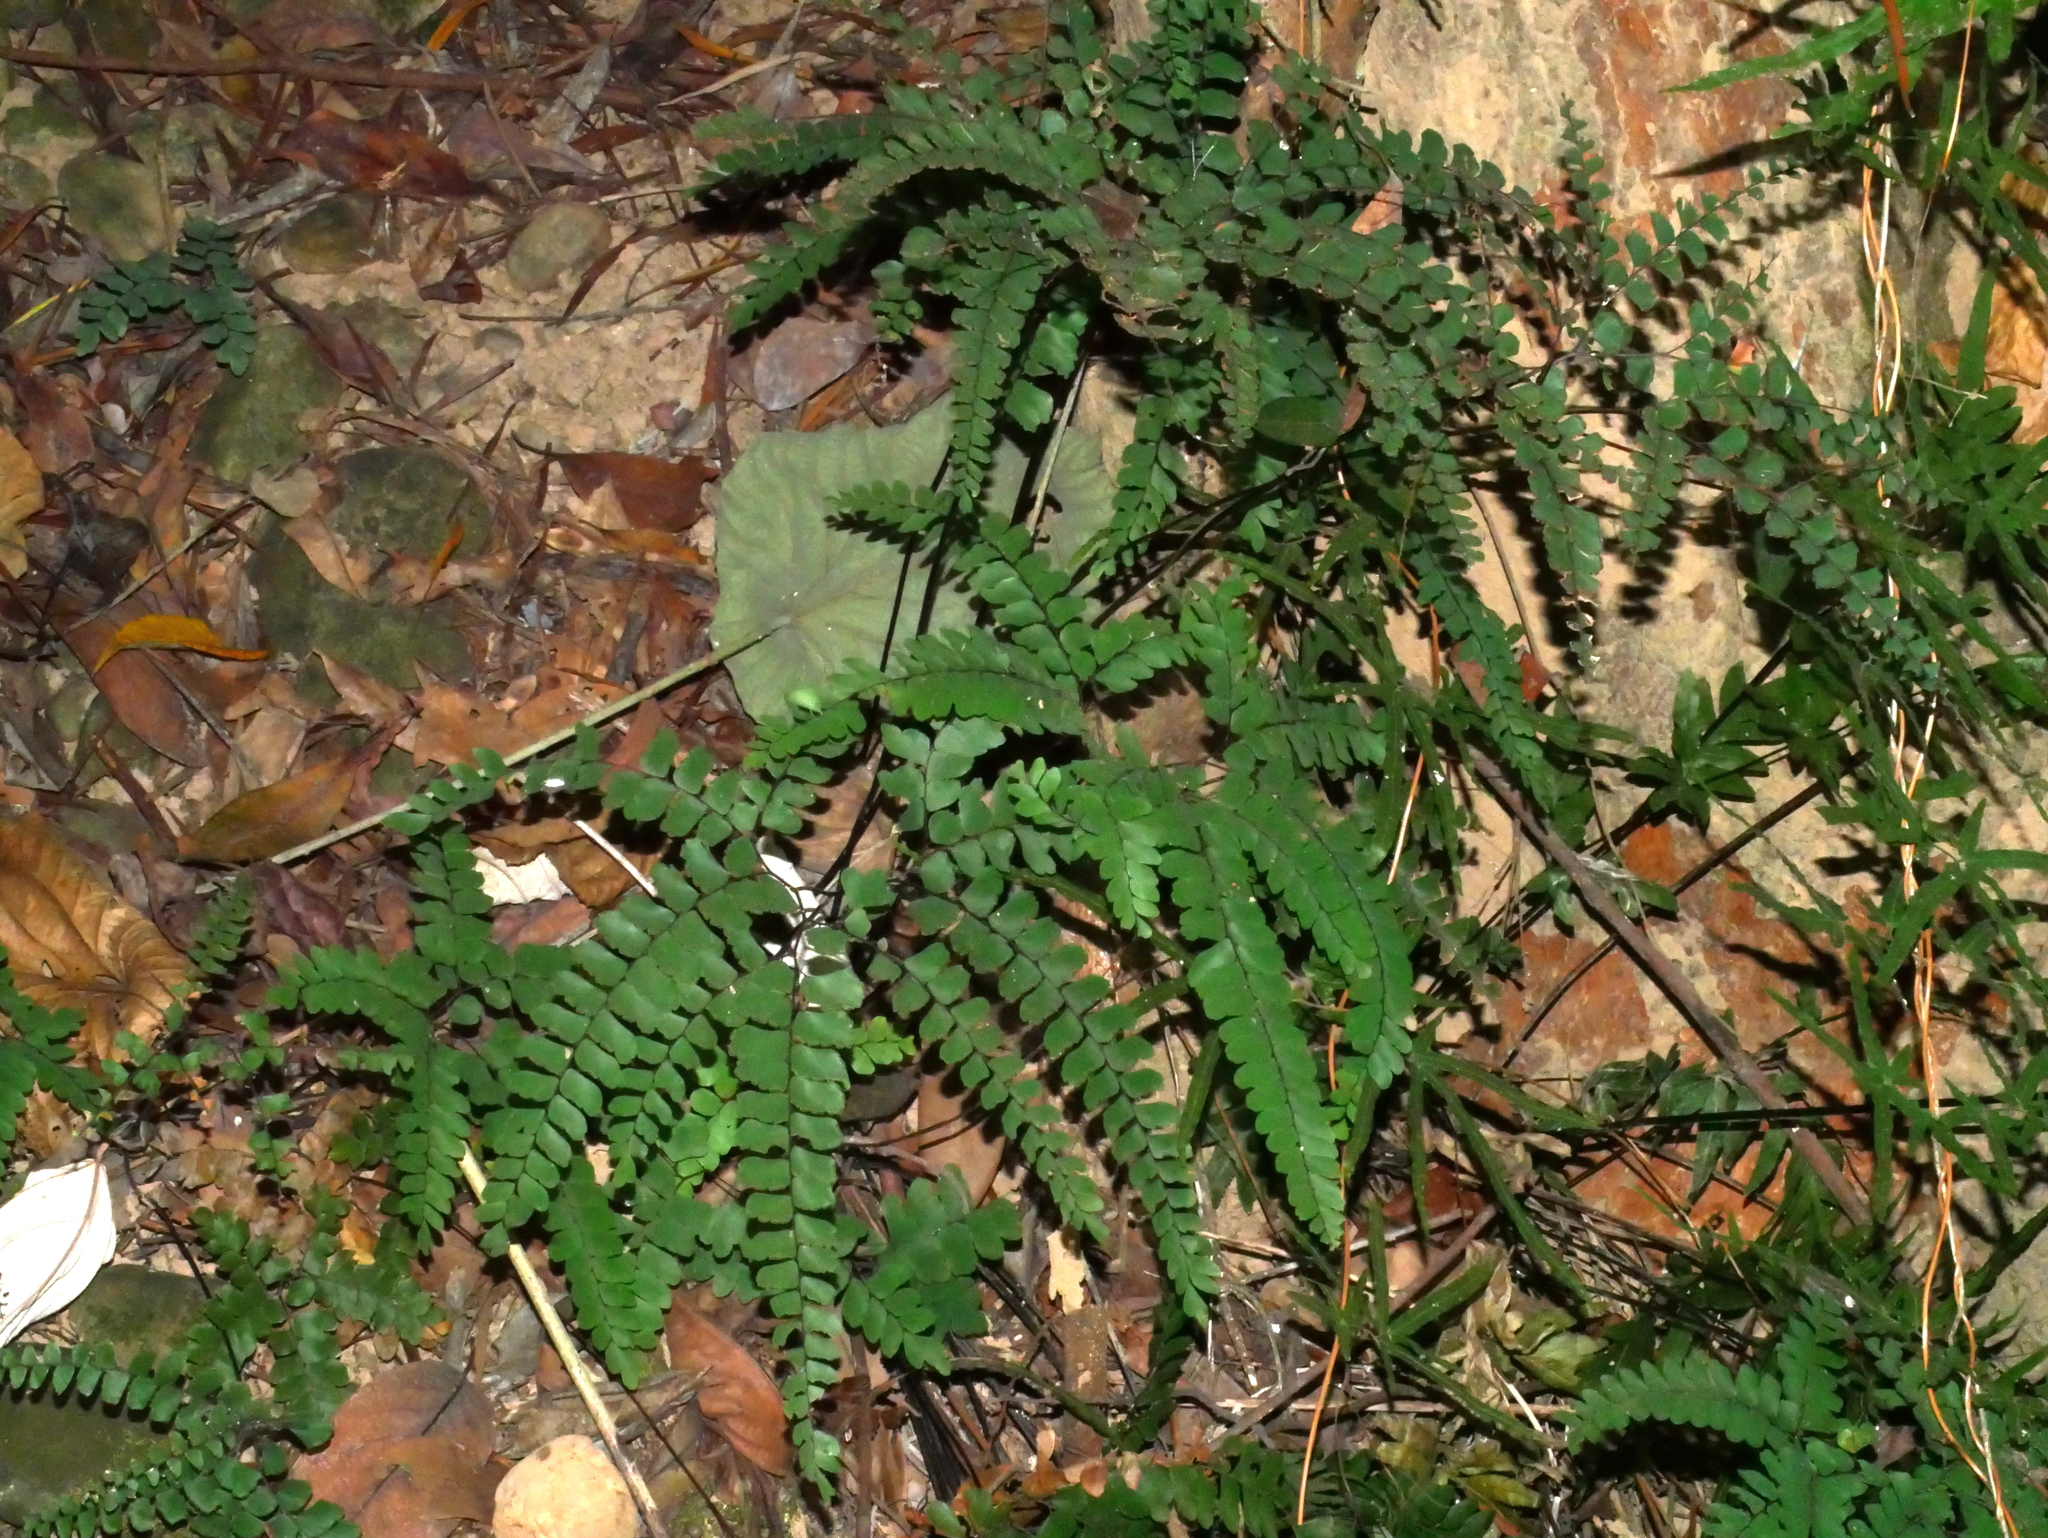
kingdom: Plantae
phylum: Tracheophyta
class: Polypodiopsida
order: Polypodiales
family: Pteridaceae
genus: Adiantum
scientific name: Adiantum flabellulatum
